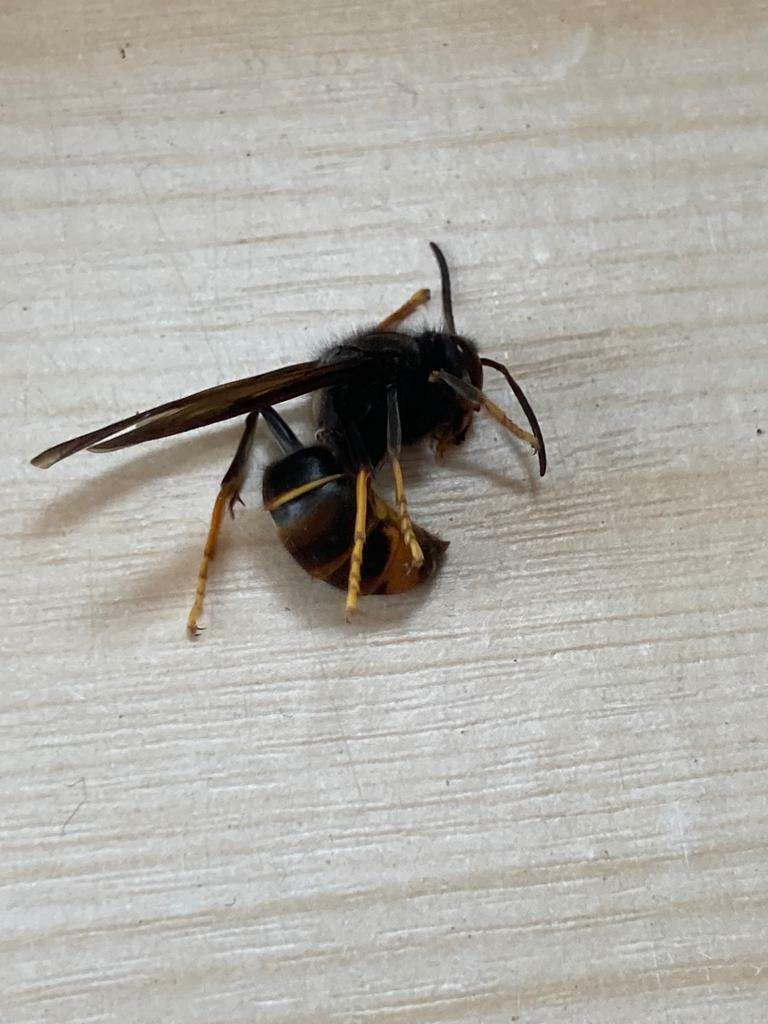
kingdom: Animalia
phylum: Arthropoda
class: Insecta
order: Hymenoptera
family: Vespidae
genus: Vespa
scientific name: Vespa velutina
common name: Asian hornet
